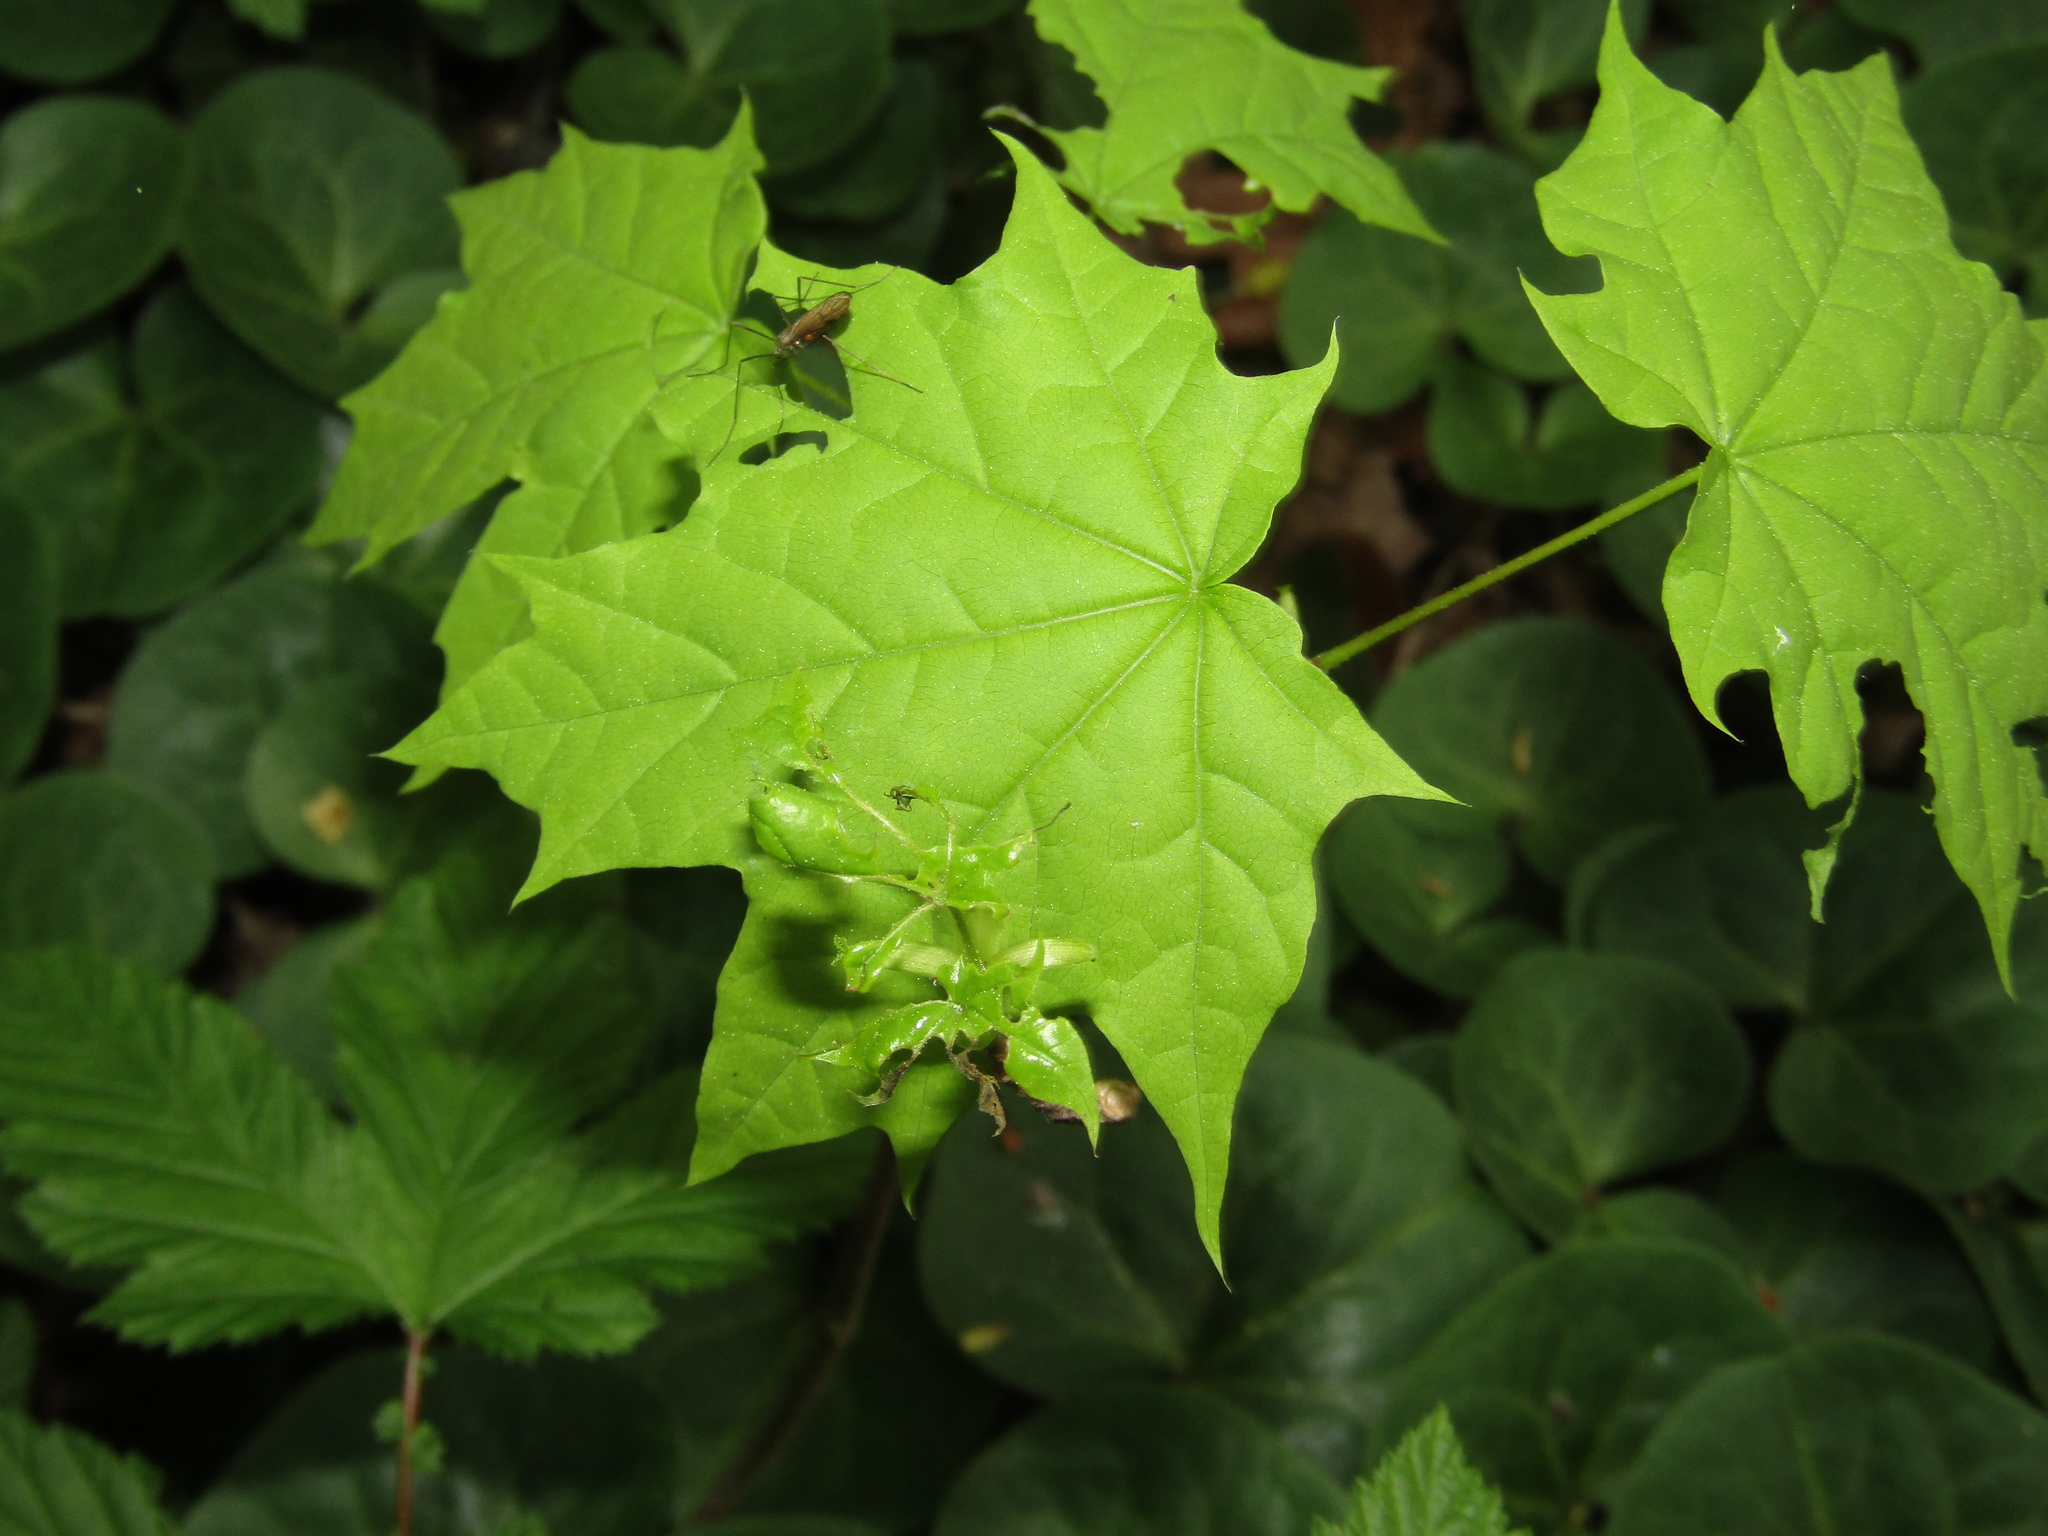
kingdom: Plantae
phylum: Tracheophyta
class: Magnoliopsida
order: Sapindales
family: Sapindaceae
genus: Acer
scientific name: Acer platanoides
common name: Norway maple
